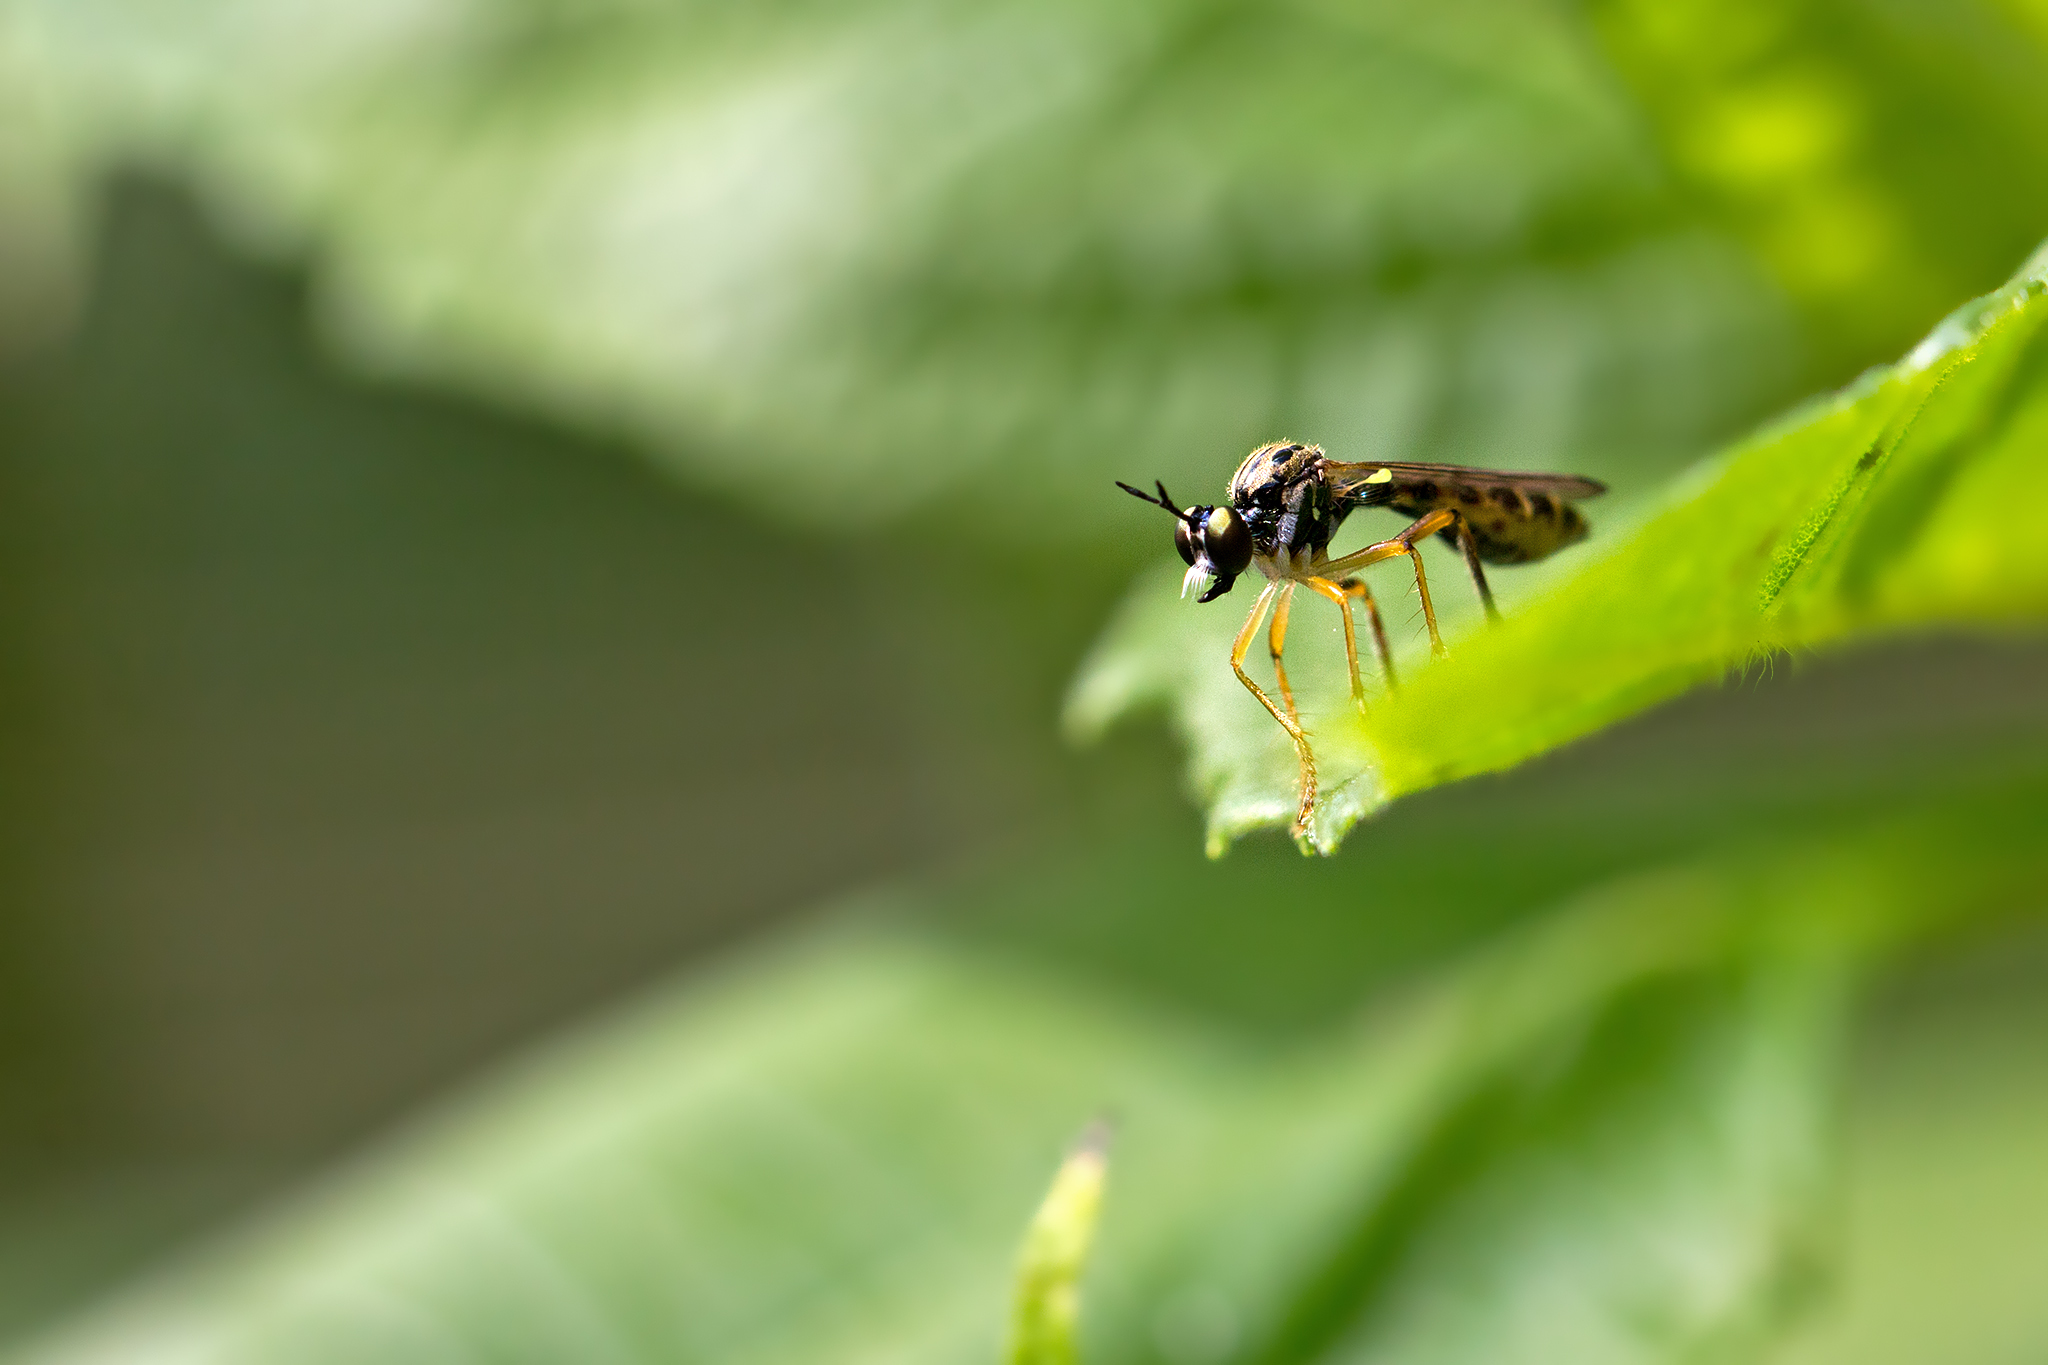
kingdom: Animalia
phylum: Arthropoda
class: Insecta
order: Diptera
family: Asilidae
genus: Dioctria
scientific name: Dioctria linearis
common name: Small yellow-legged robberfly
